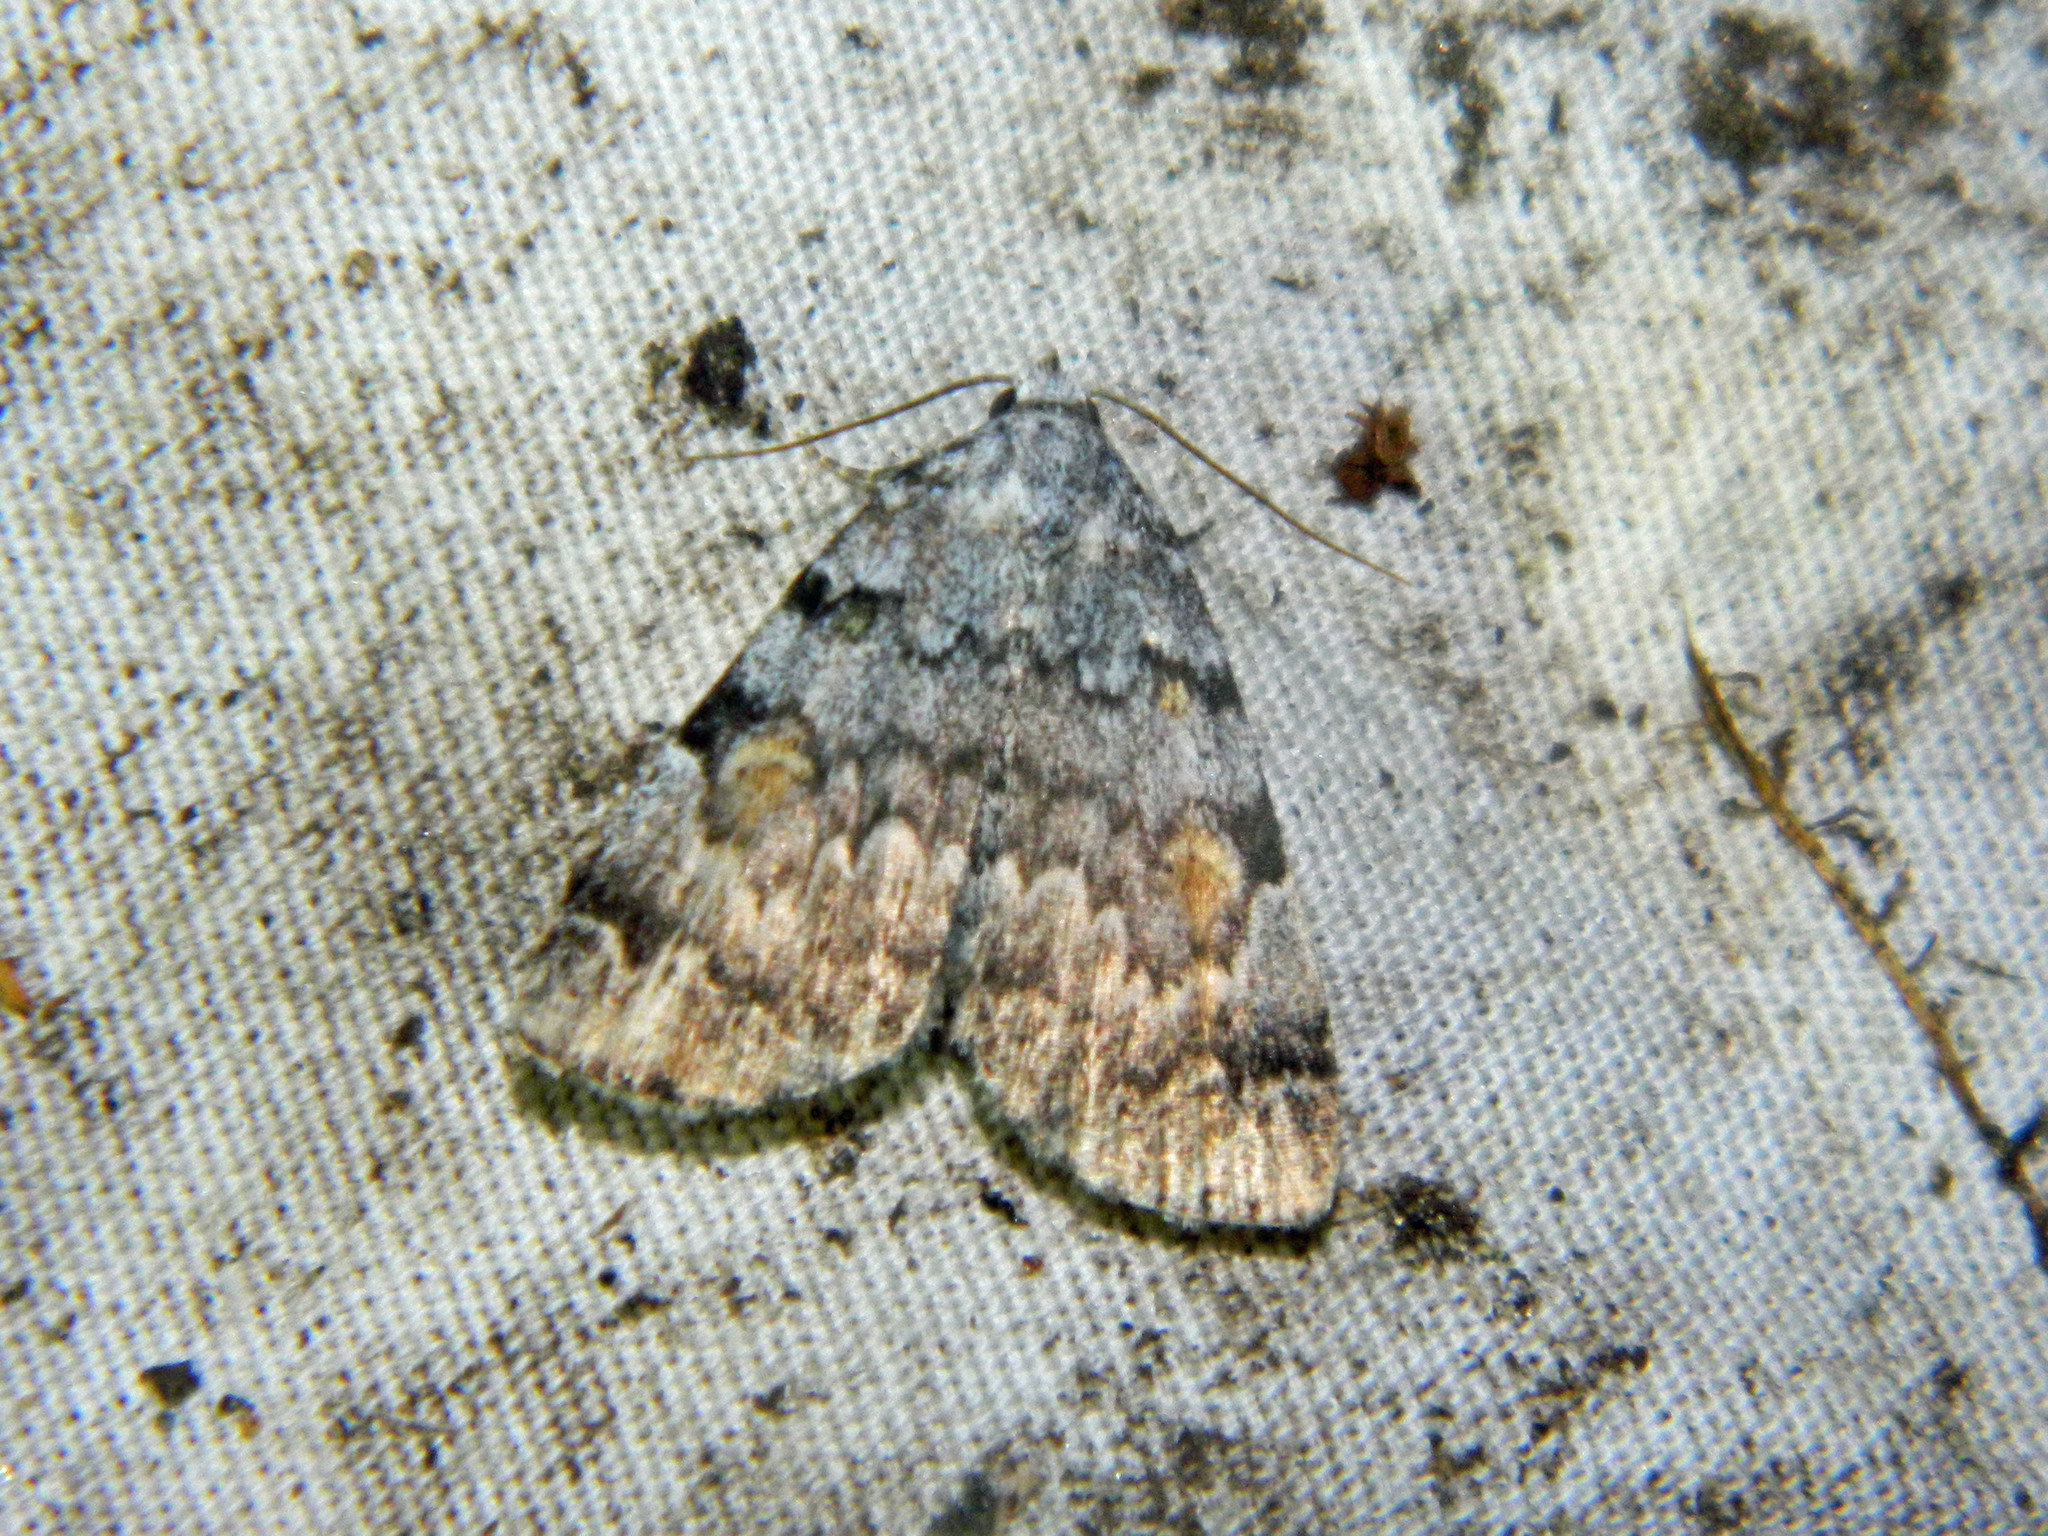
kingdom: Animalia
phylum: Arthropoda
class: Insecta
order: Lepidoptera
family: Erebidae
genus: Idia
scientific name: Idia americalis
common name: American idia moth
